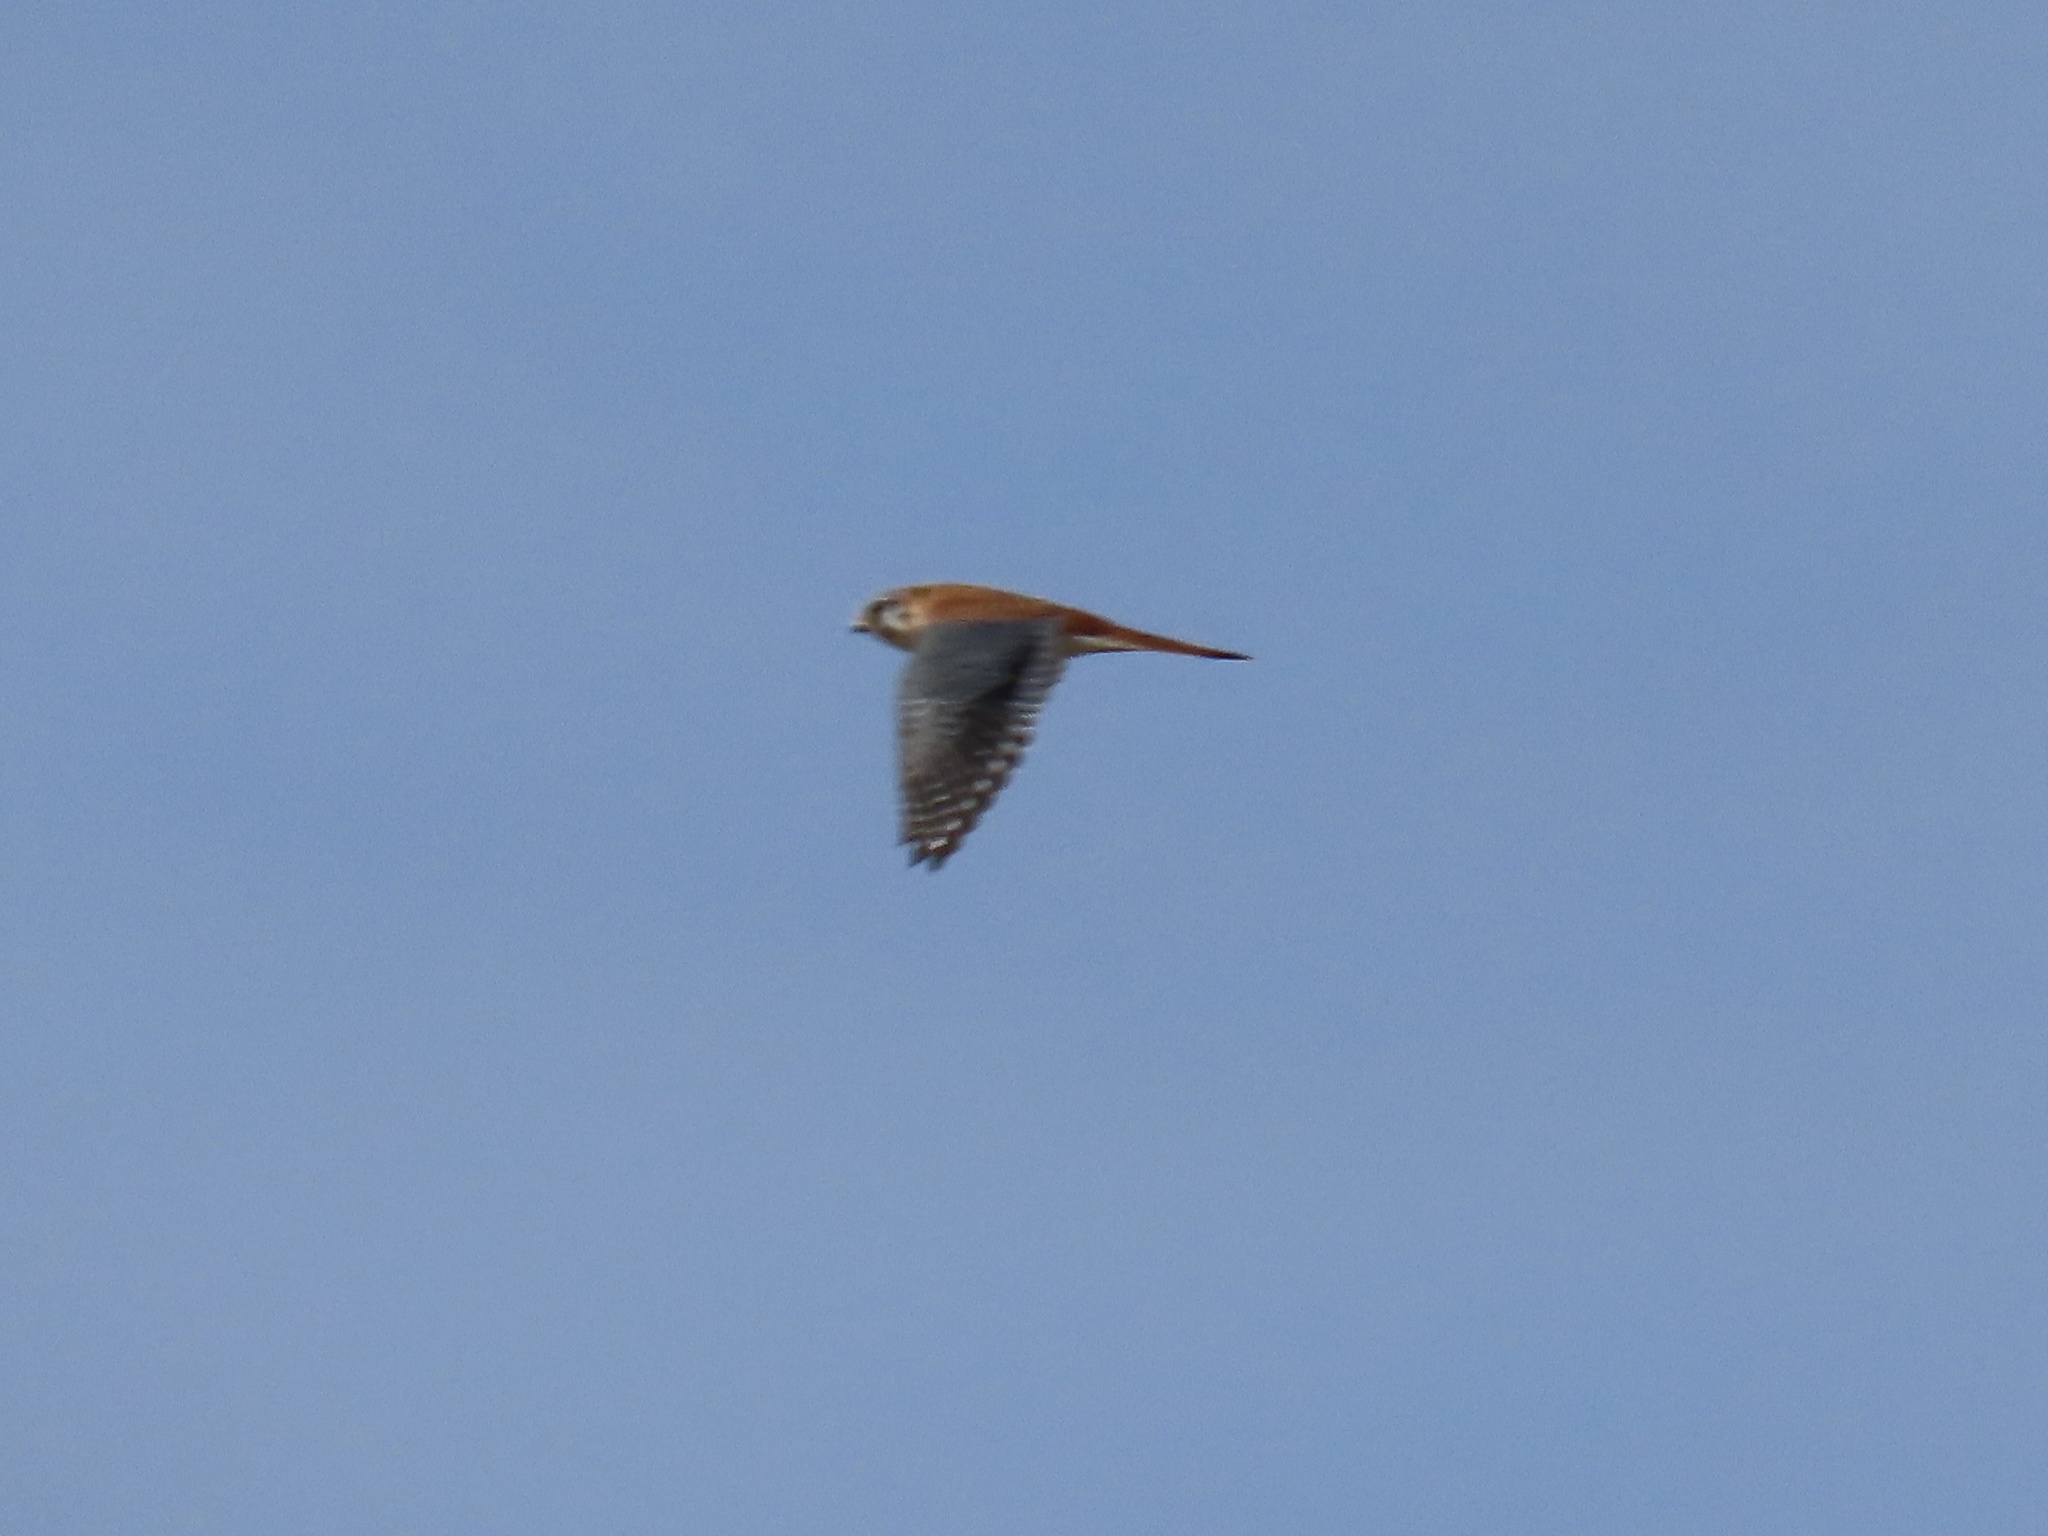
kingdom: Animalia
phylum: Chordata
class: Aves
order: Falconiformes
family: Falconidae
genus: Falco
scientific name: Falco sparverius
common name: American kestrel
